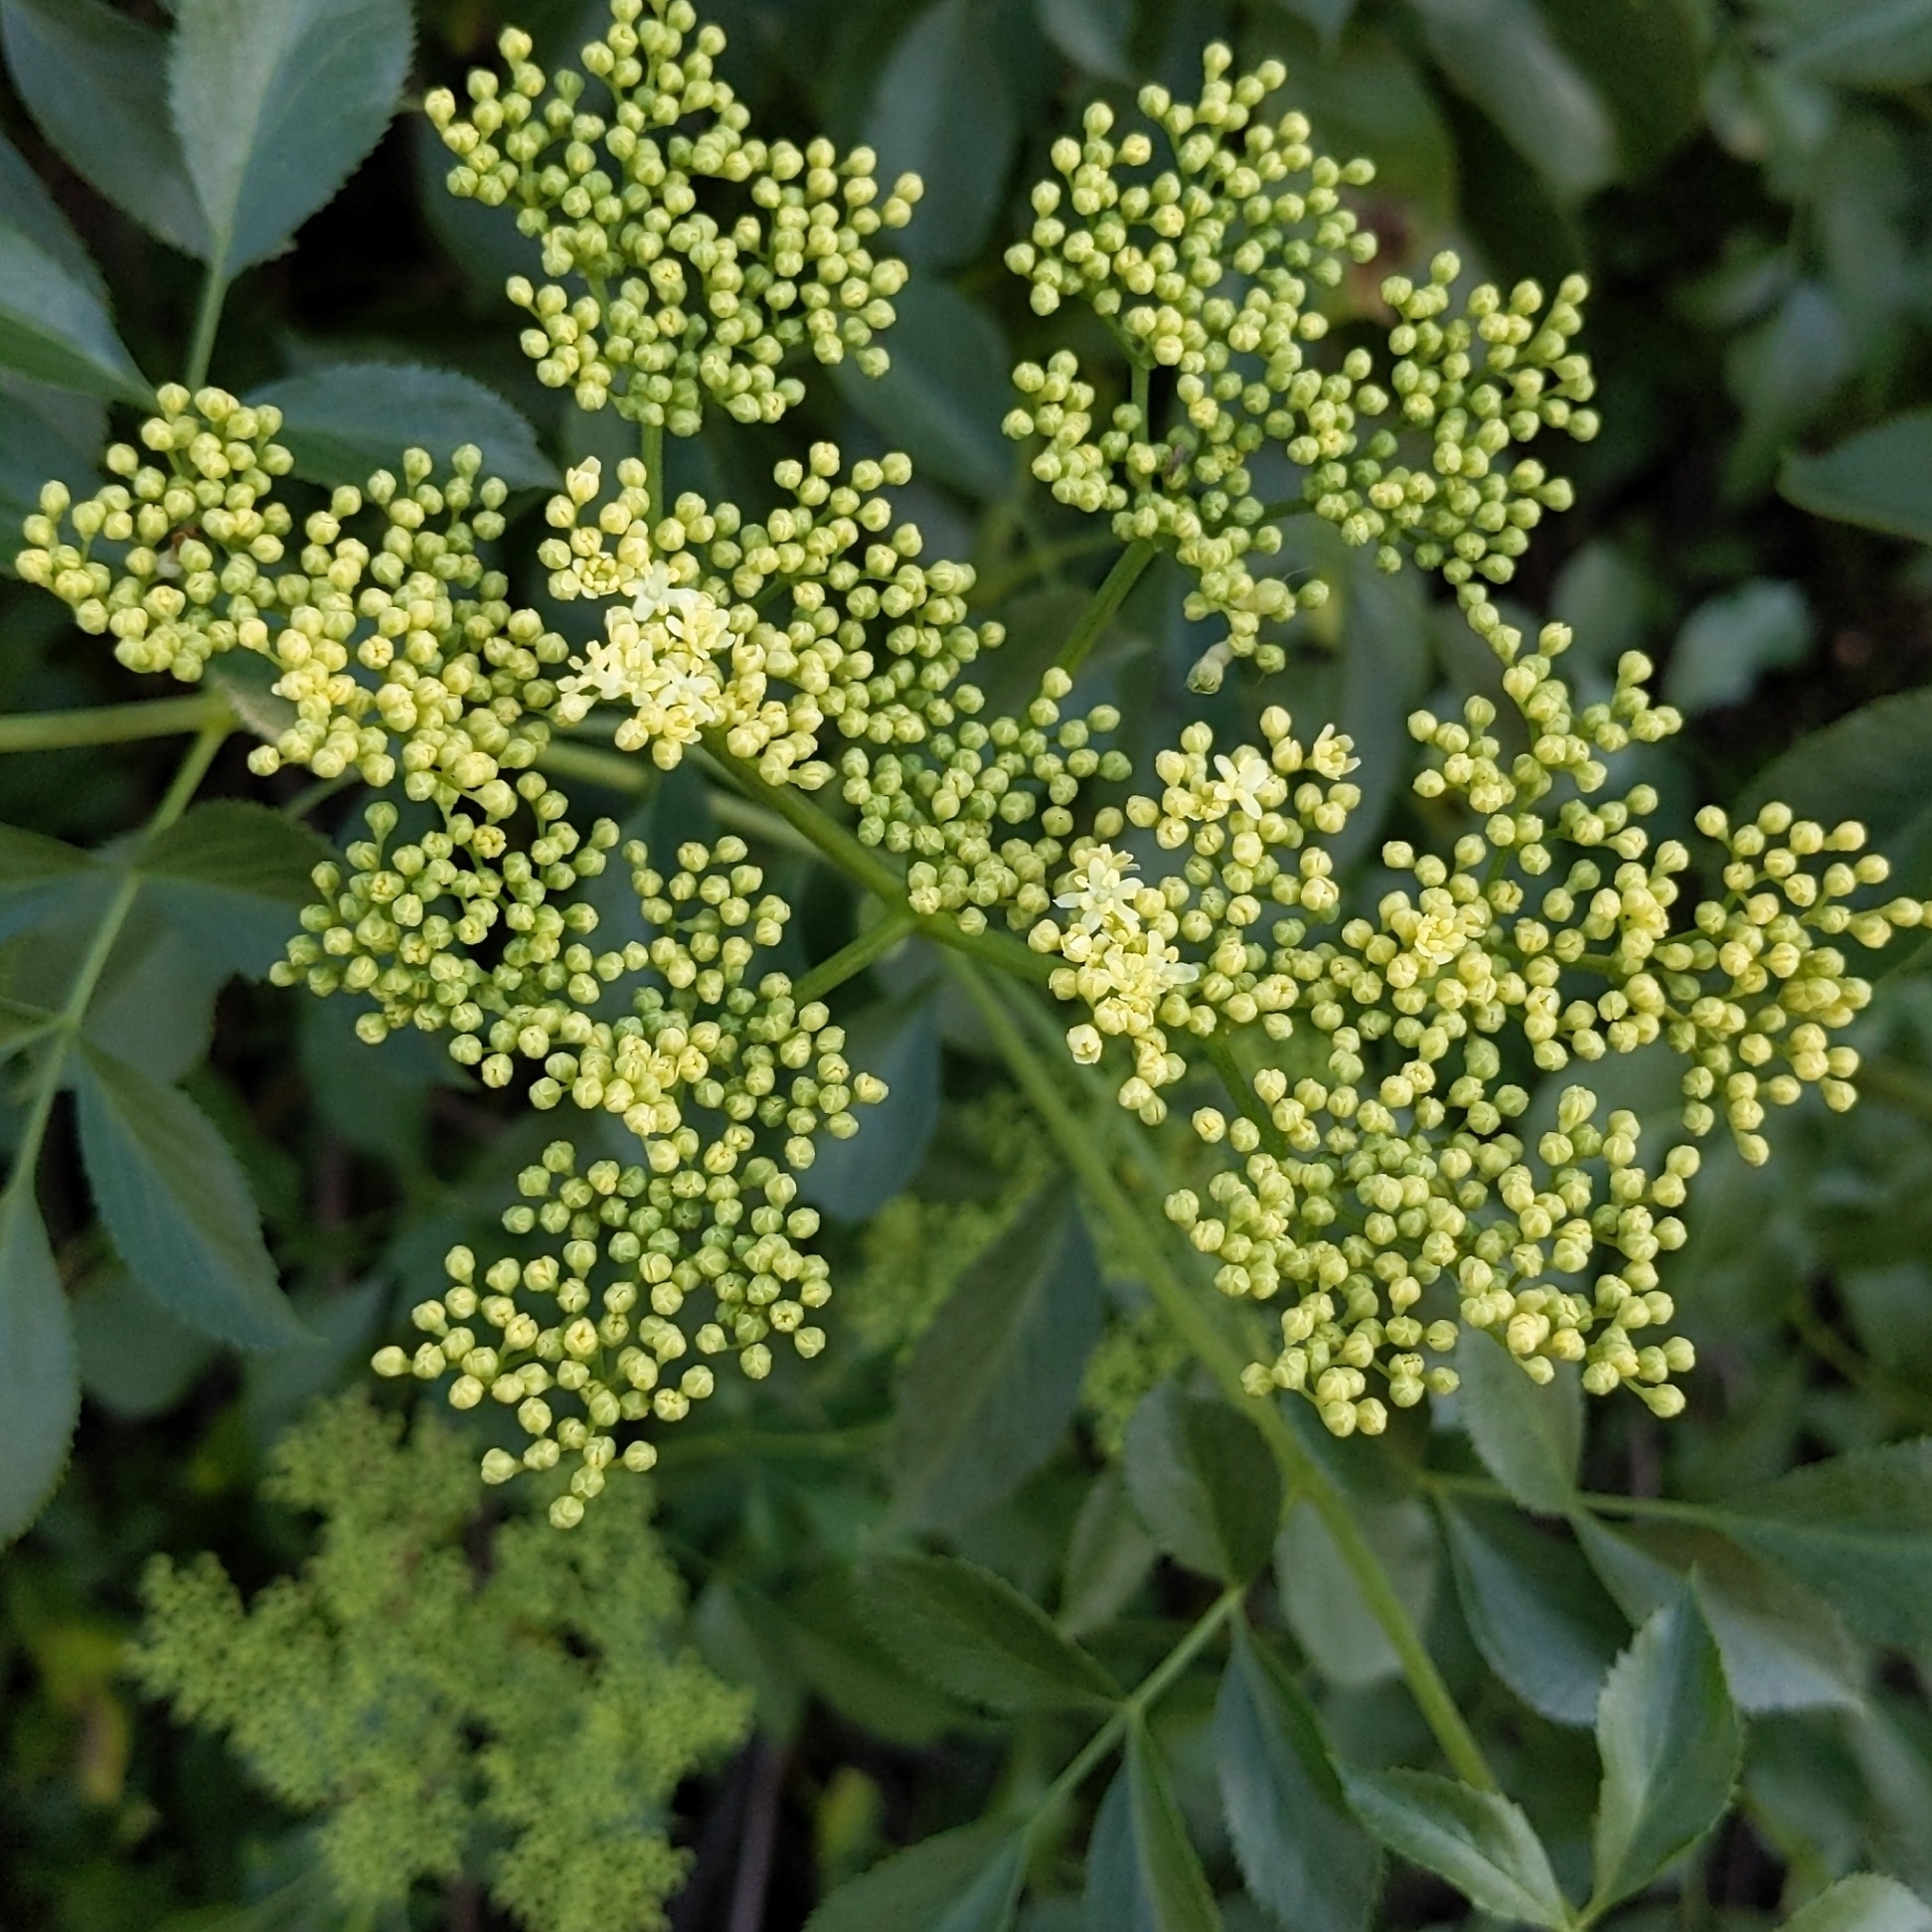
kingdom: Plantae
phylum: Tracheophyta
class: Magnoliopsida
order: Dipsacales
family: Viburnaceae
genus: Sambucus
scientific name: Sambucus cerulea
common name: Blue elder
